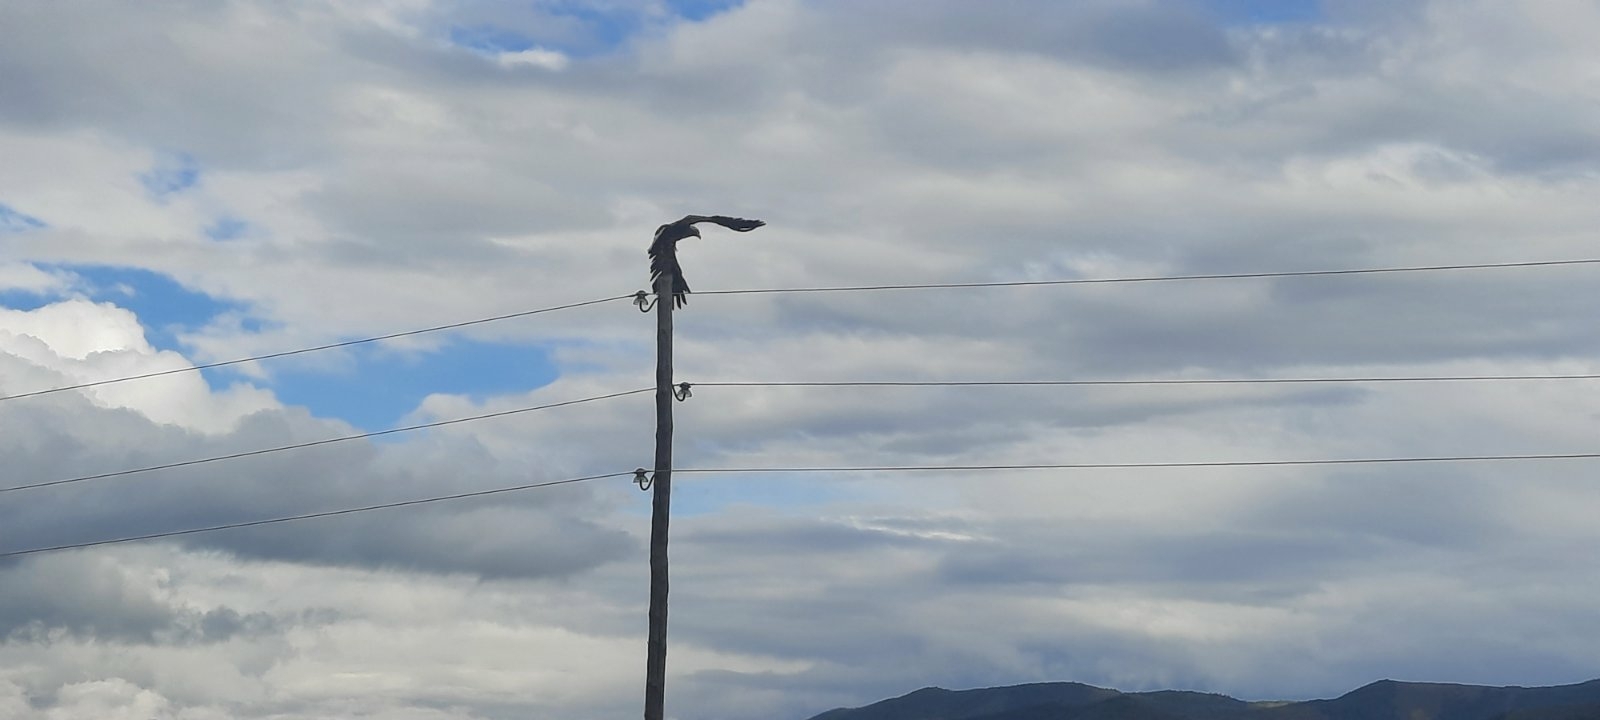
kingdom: Animalia
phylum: Chordata
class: Aves
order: Accipitriformes
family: Accipitridae
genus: Haliaeetus
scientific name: Haliaeetus albicilla
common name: White-tailed eagle
